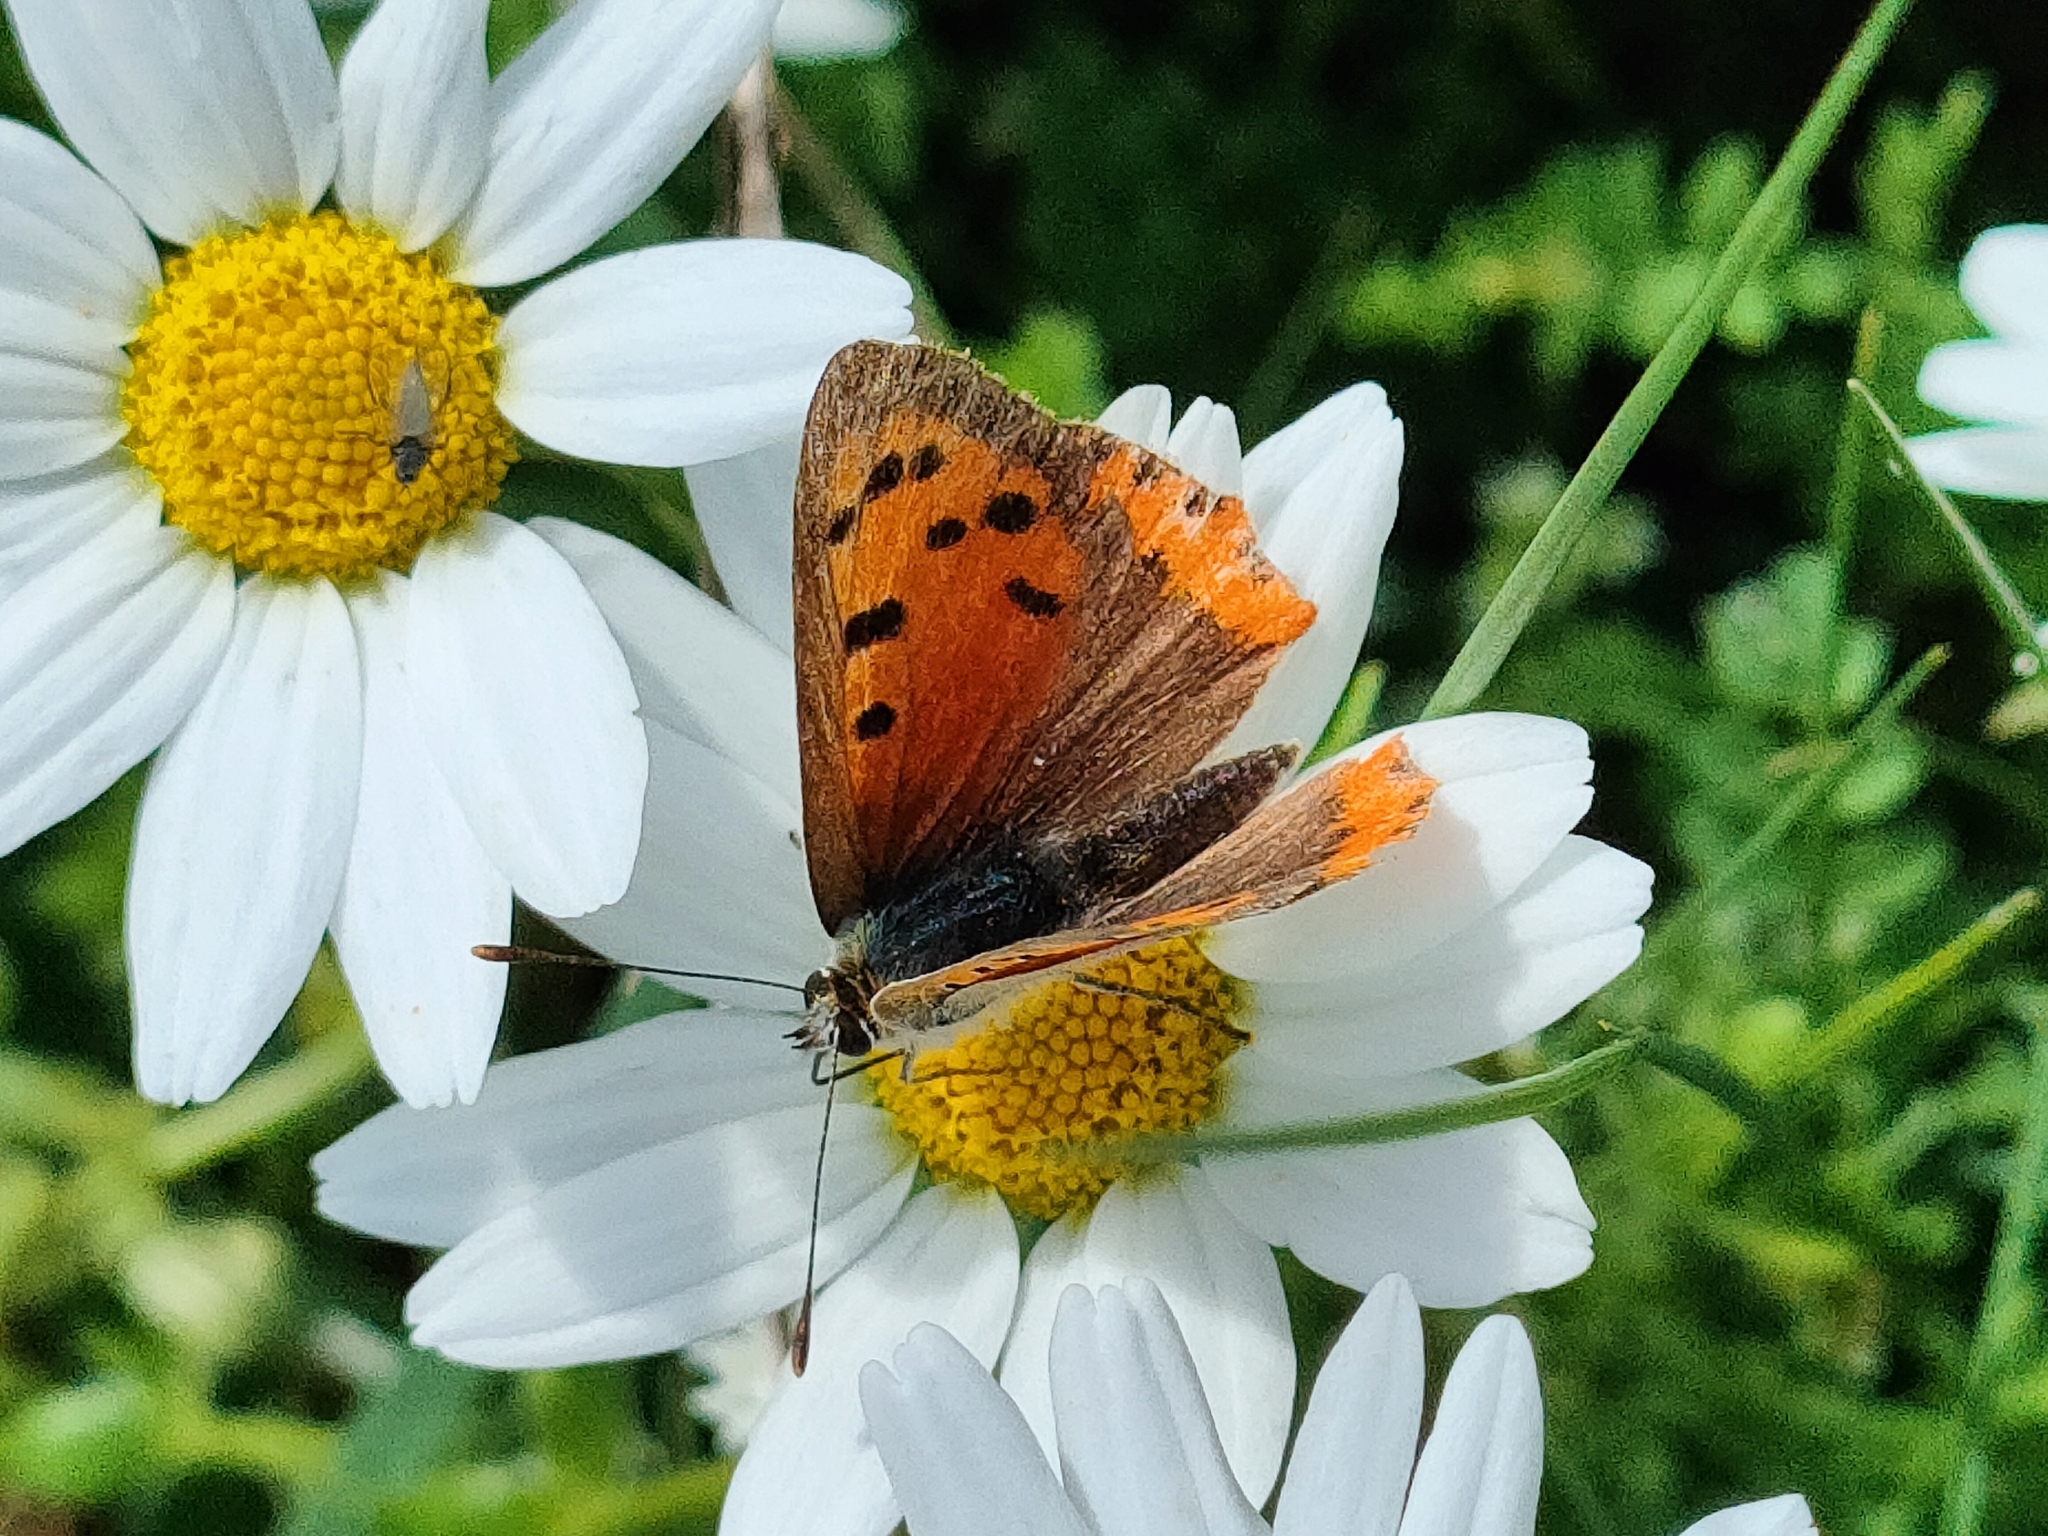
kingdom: Animalia
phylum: Arthropoda
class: Insecta
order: Lepidoptera
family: Lycaenidae
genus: Lycaena
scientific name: Lycaena phlaeas
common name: Small copper
